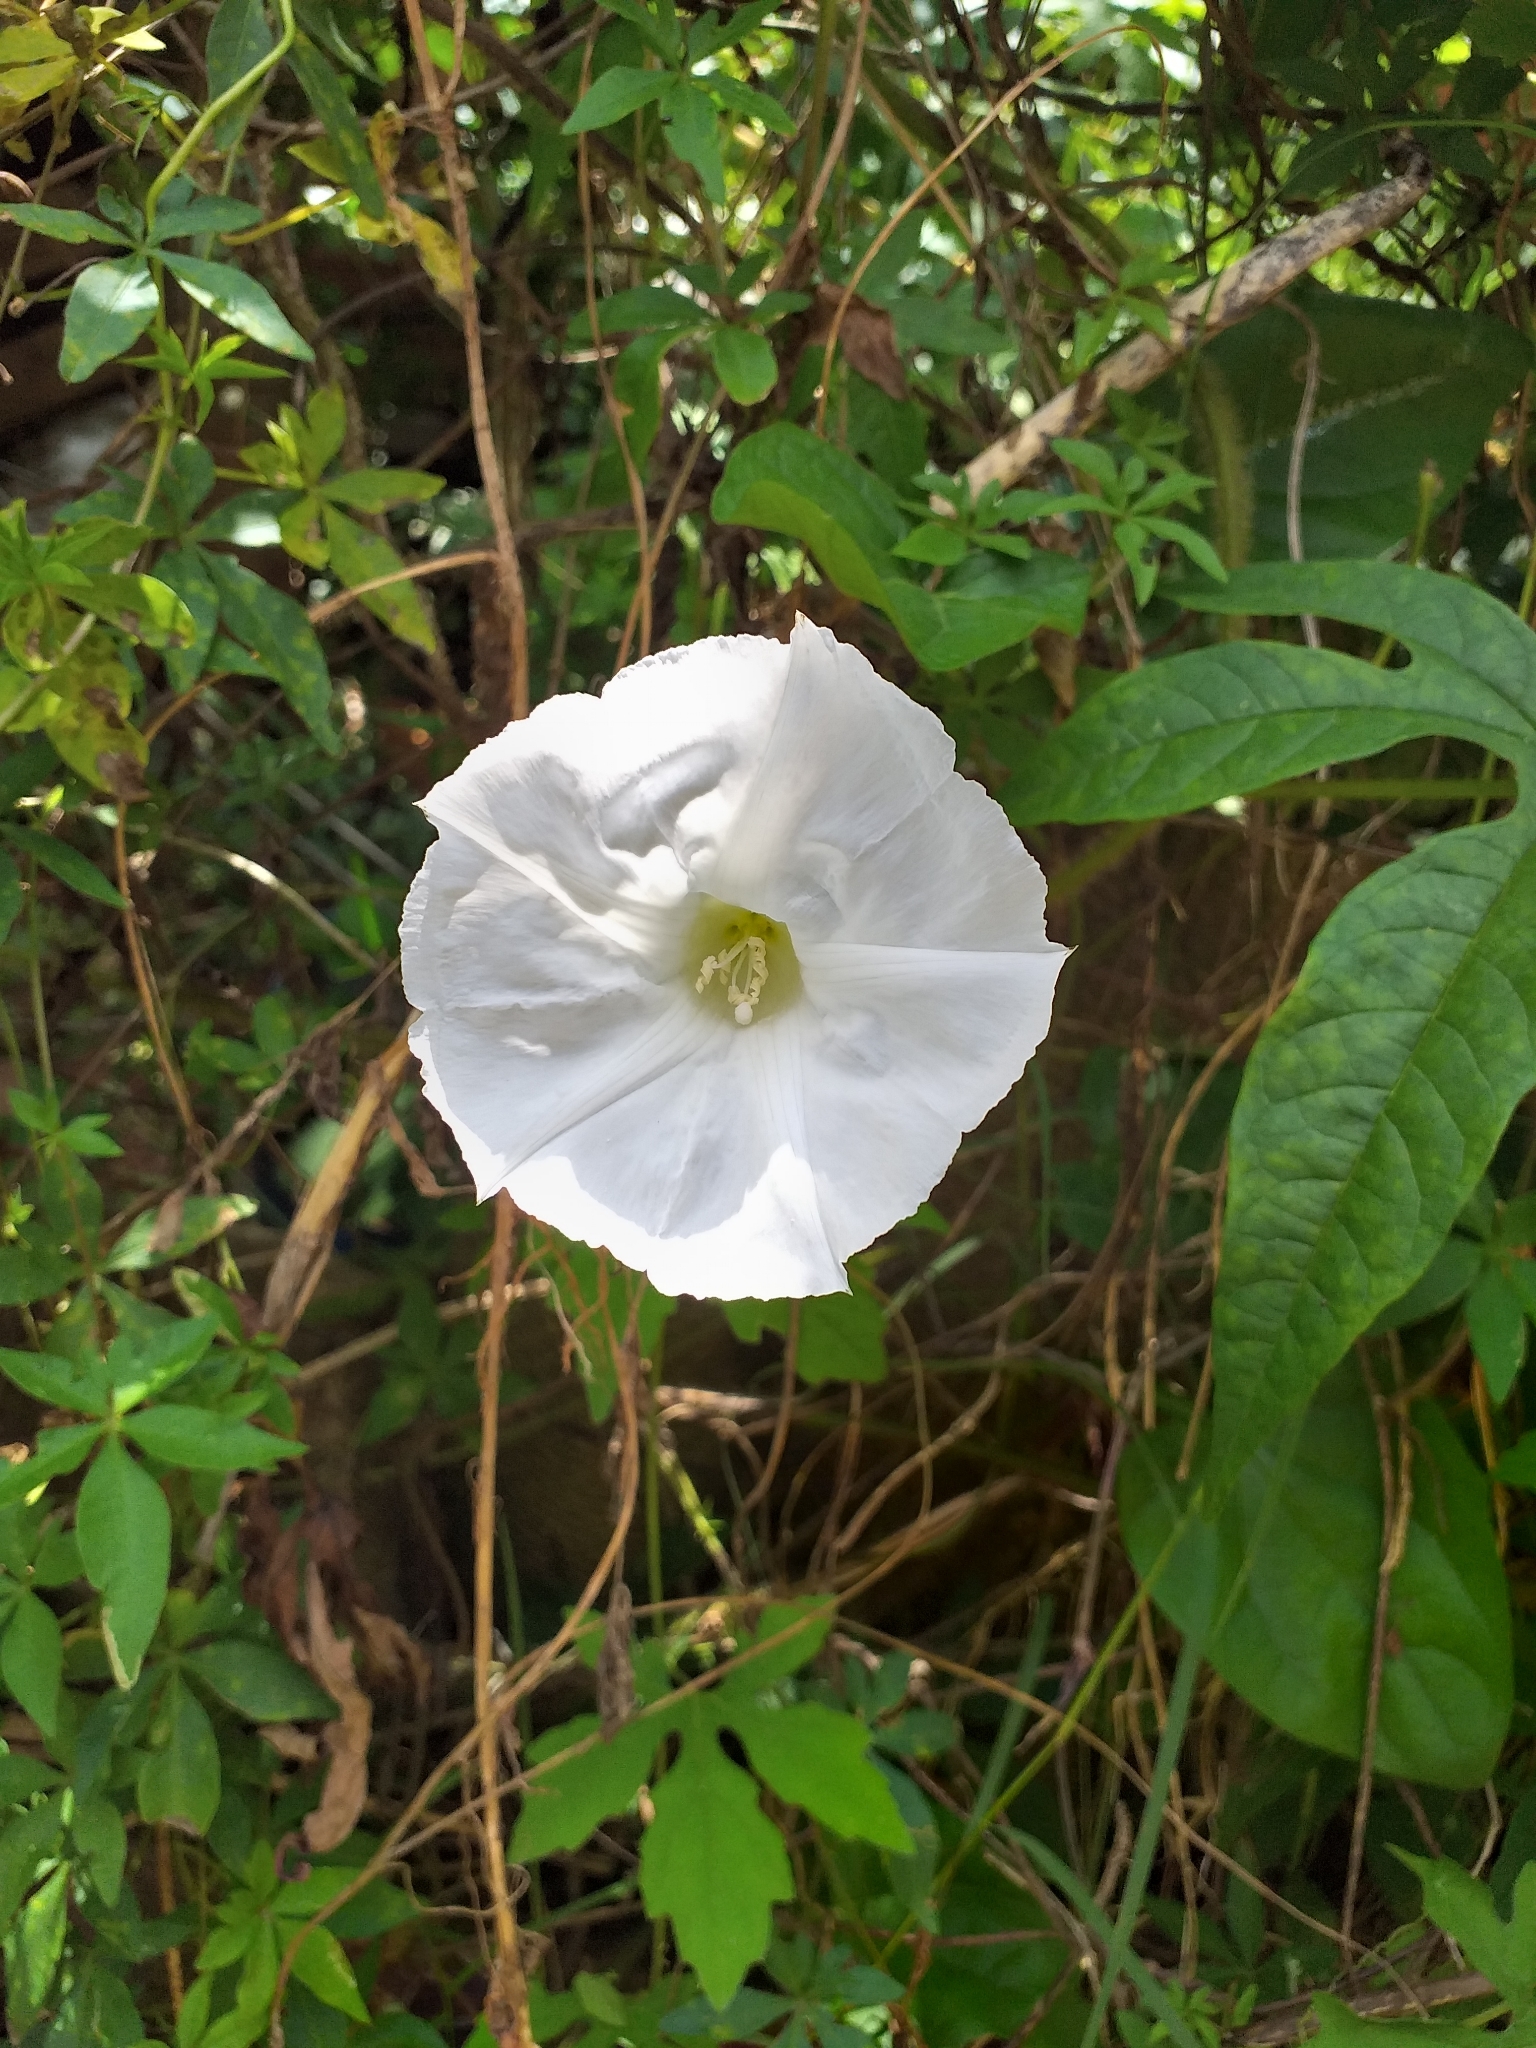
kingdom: Plantae
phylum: Tracheophyta
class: Magnoliopsida
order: Solanales
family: Convolvulaceae
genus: Distimake
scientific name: Distimake dissectus
